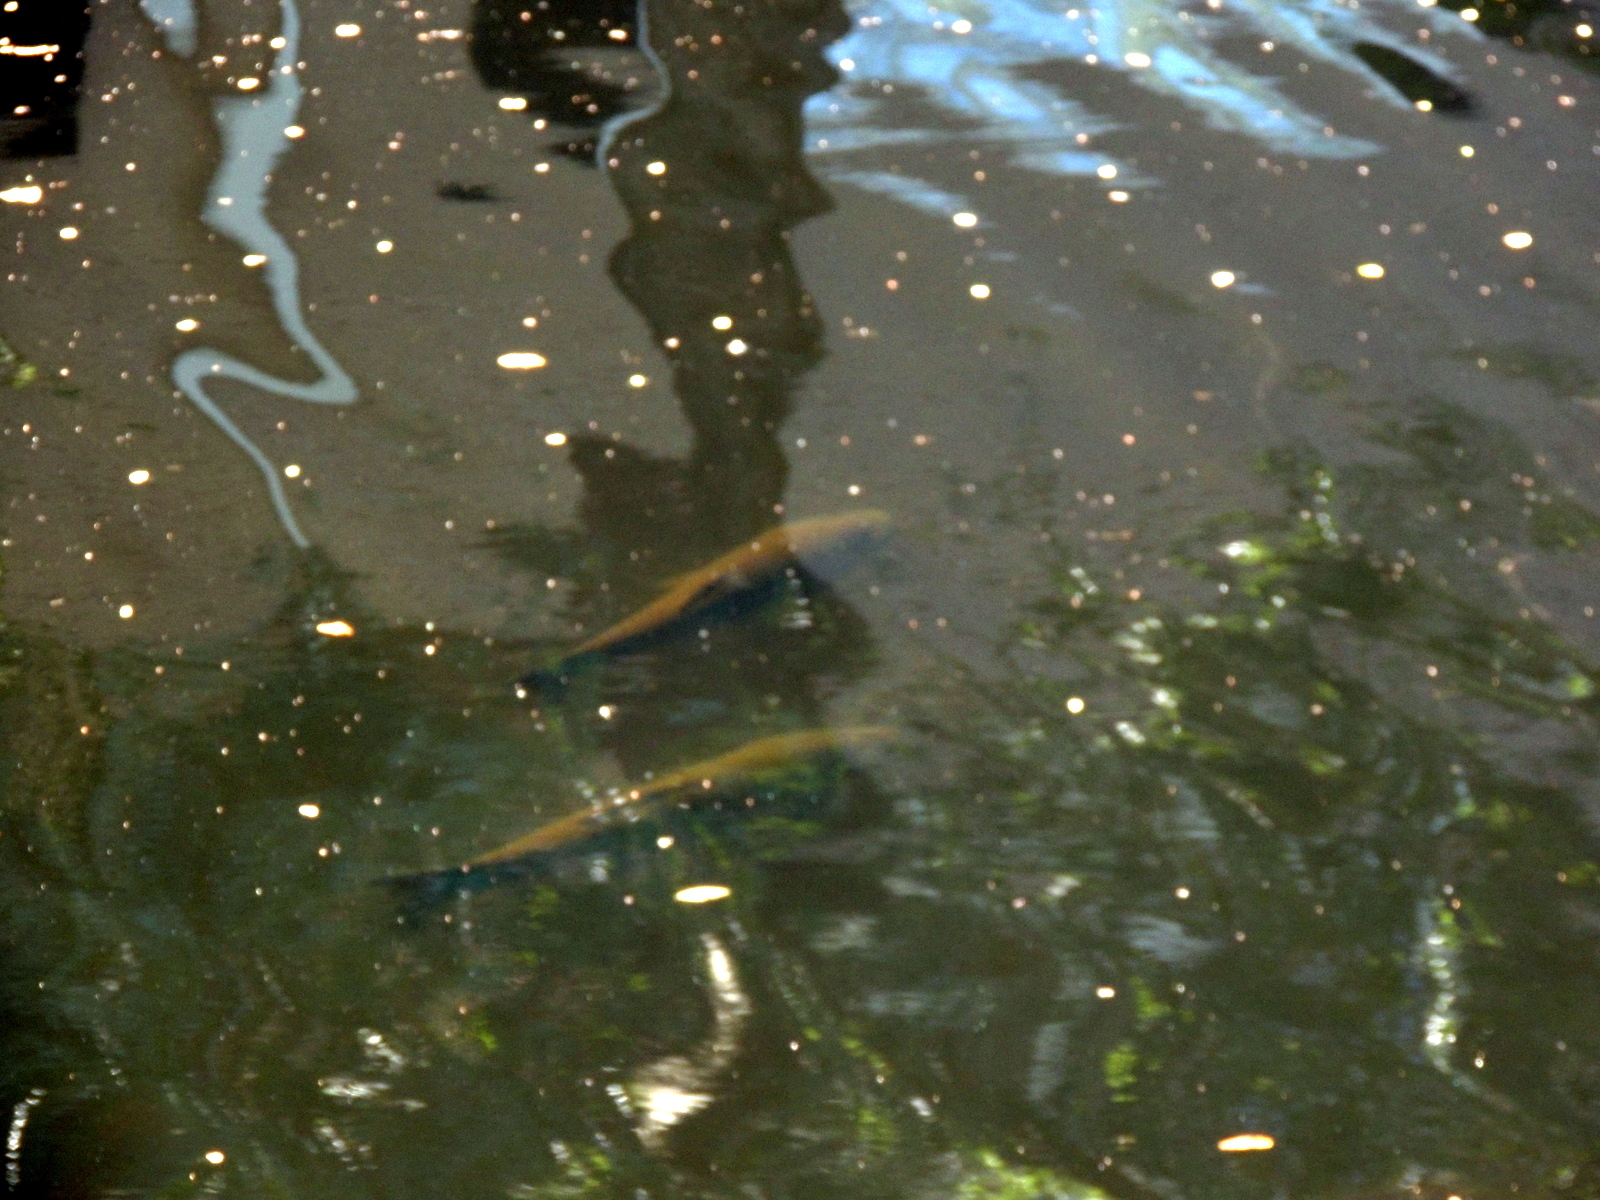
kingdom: Animalia
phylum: Chordata
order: Cypriniformes
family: Cyprinidae
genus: Ctenopharyngodon
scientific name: Ctenopharyngodon idella
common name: Grass carp
